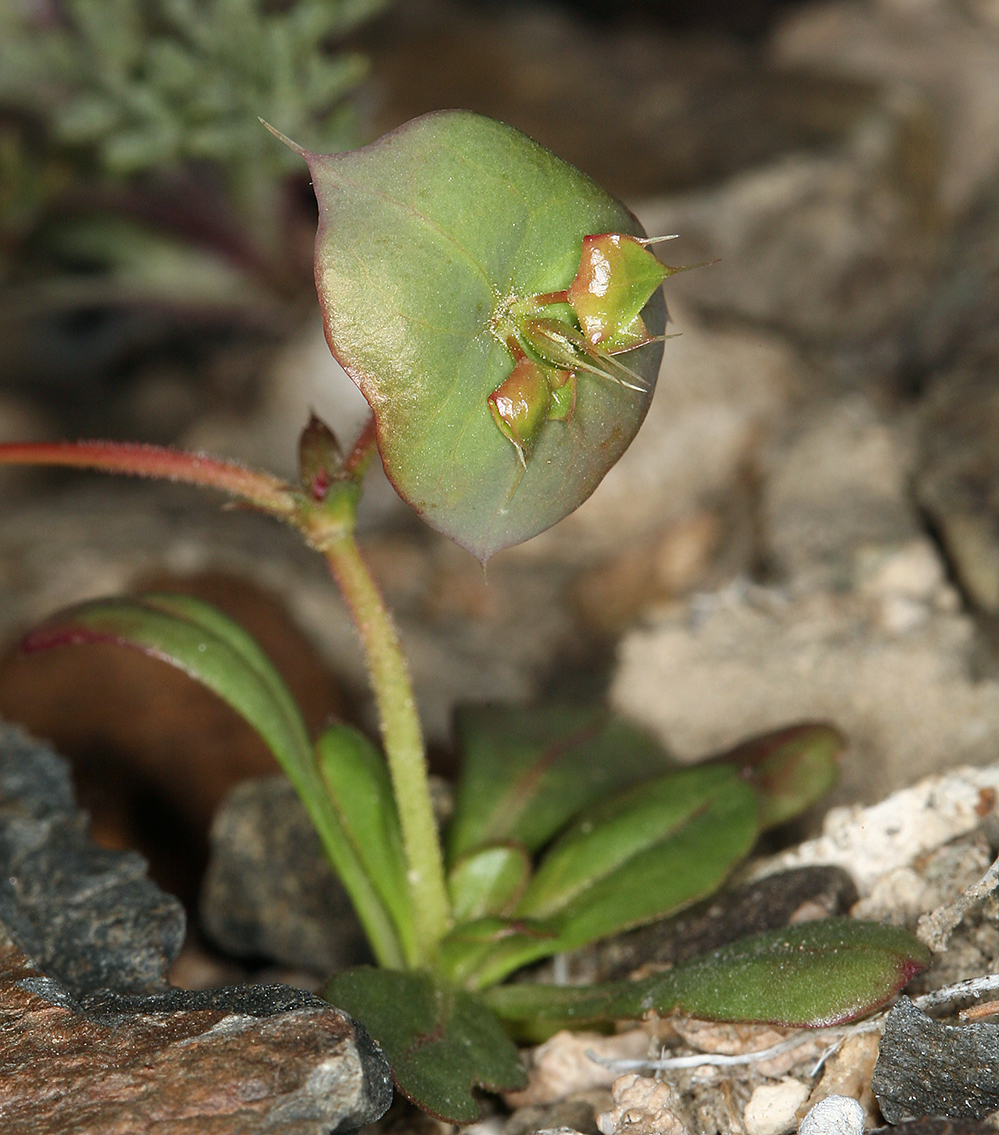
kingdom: Plantae
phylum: Tracheophyta
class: Magnoliopsida
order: Caryophyllales
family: Polygonaceae
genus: Oxytheca
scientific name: Oxytheca perfoliata
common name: Round-leaf puncturebract
